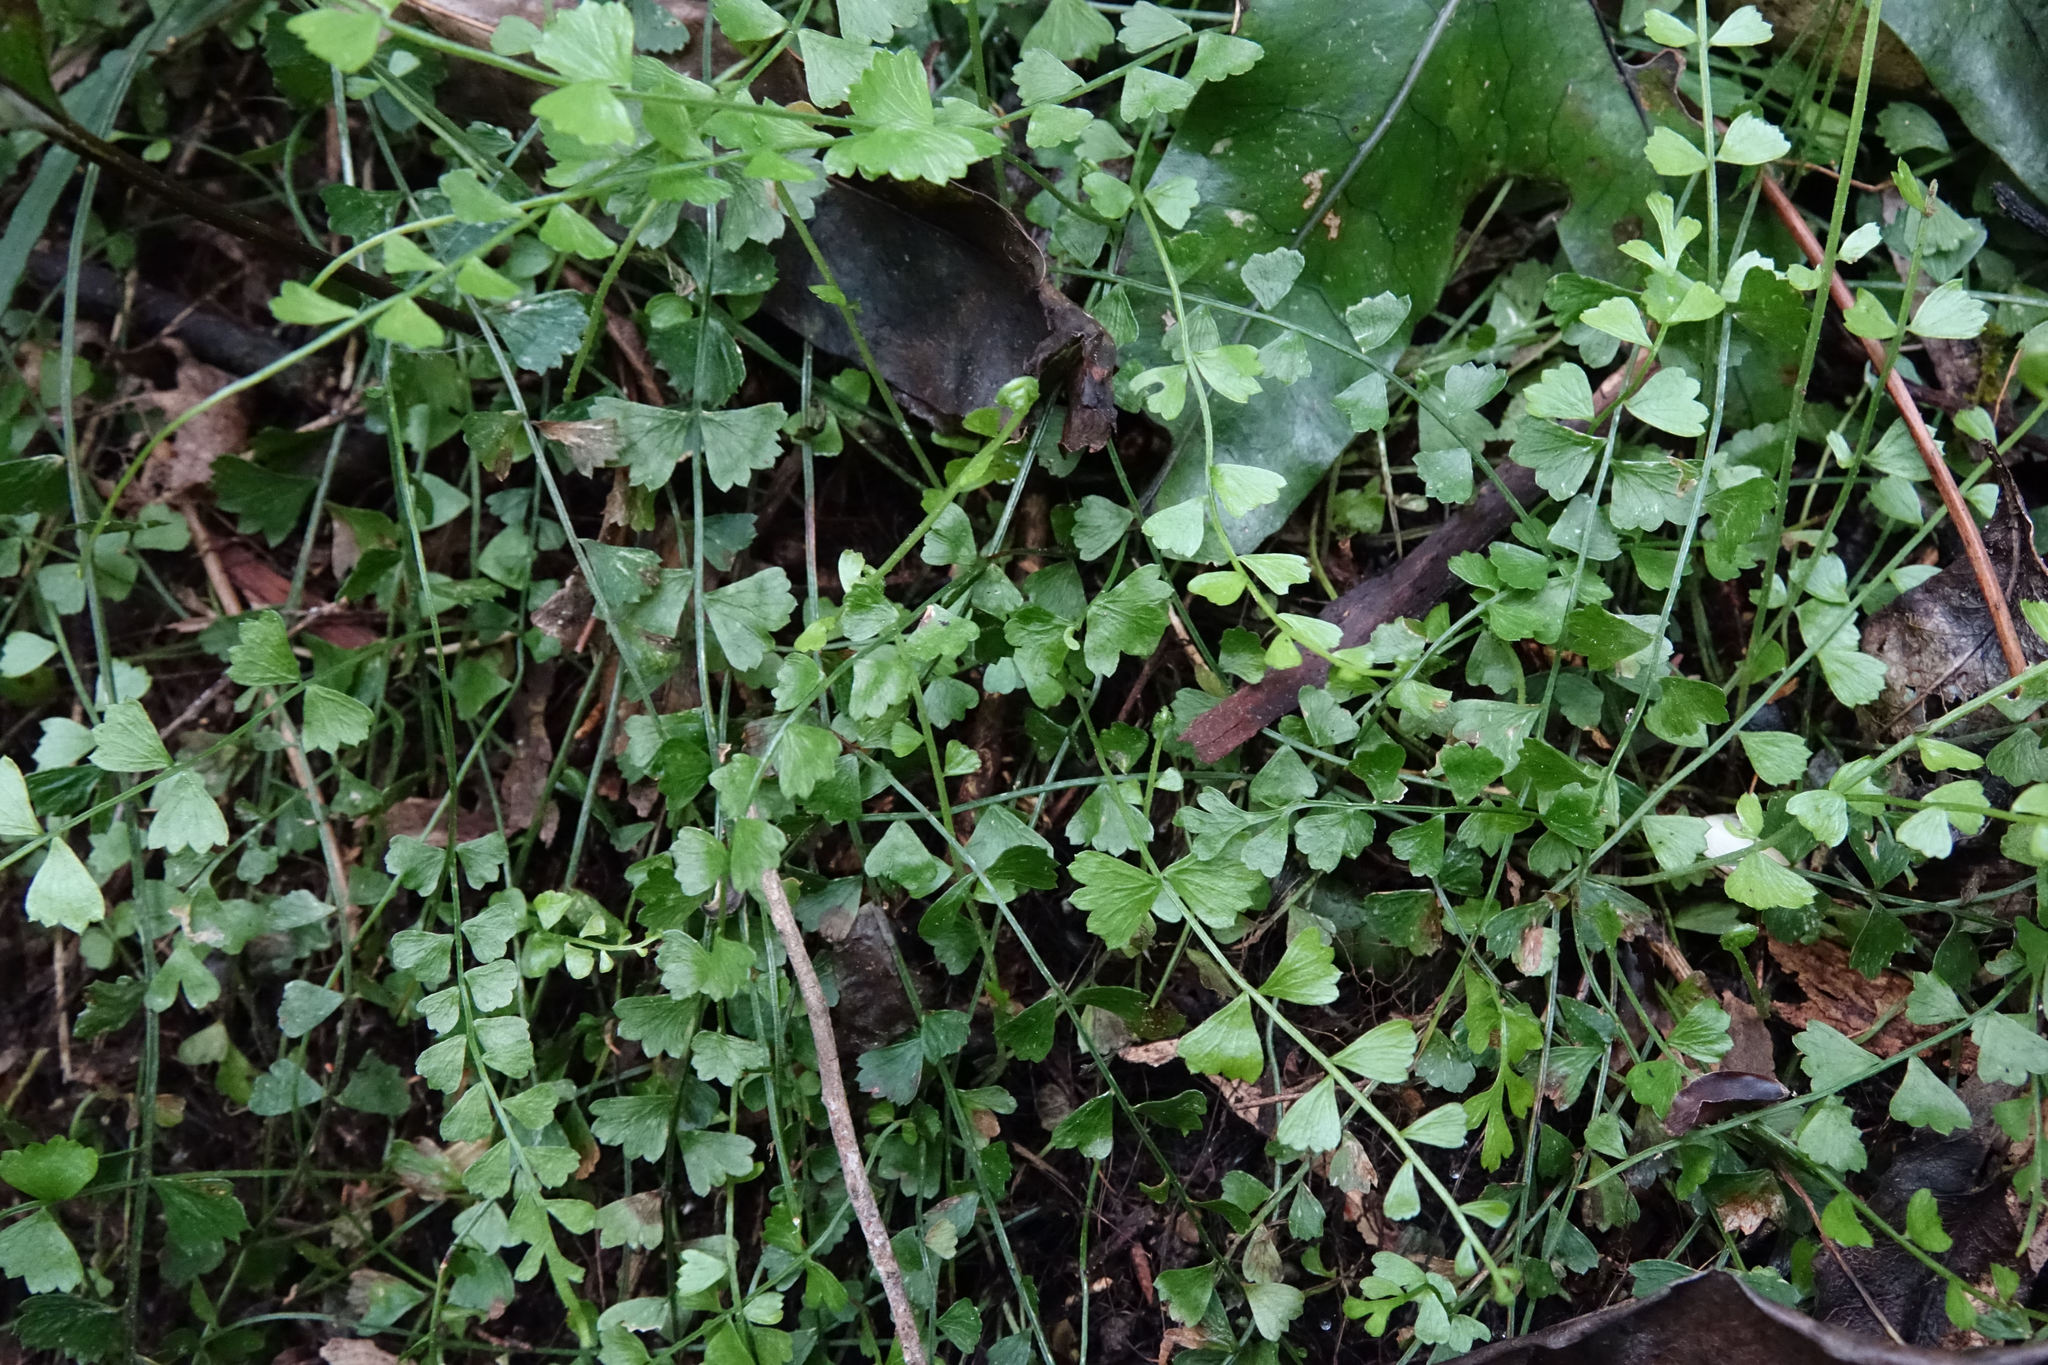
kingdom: Plantae
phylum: Tracheophyta
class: Polypodiopsida
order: Polypodiales
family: Aspleniaceae
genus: Asplenium
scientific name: Asplenium flabellifolium
